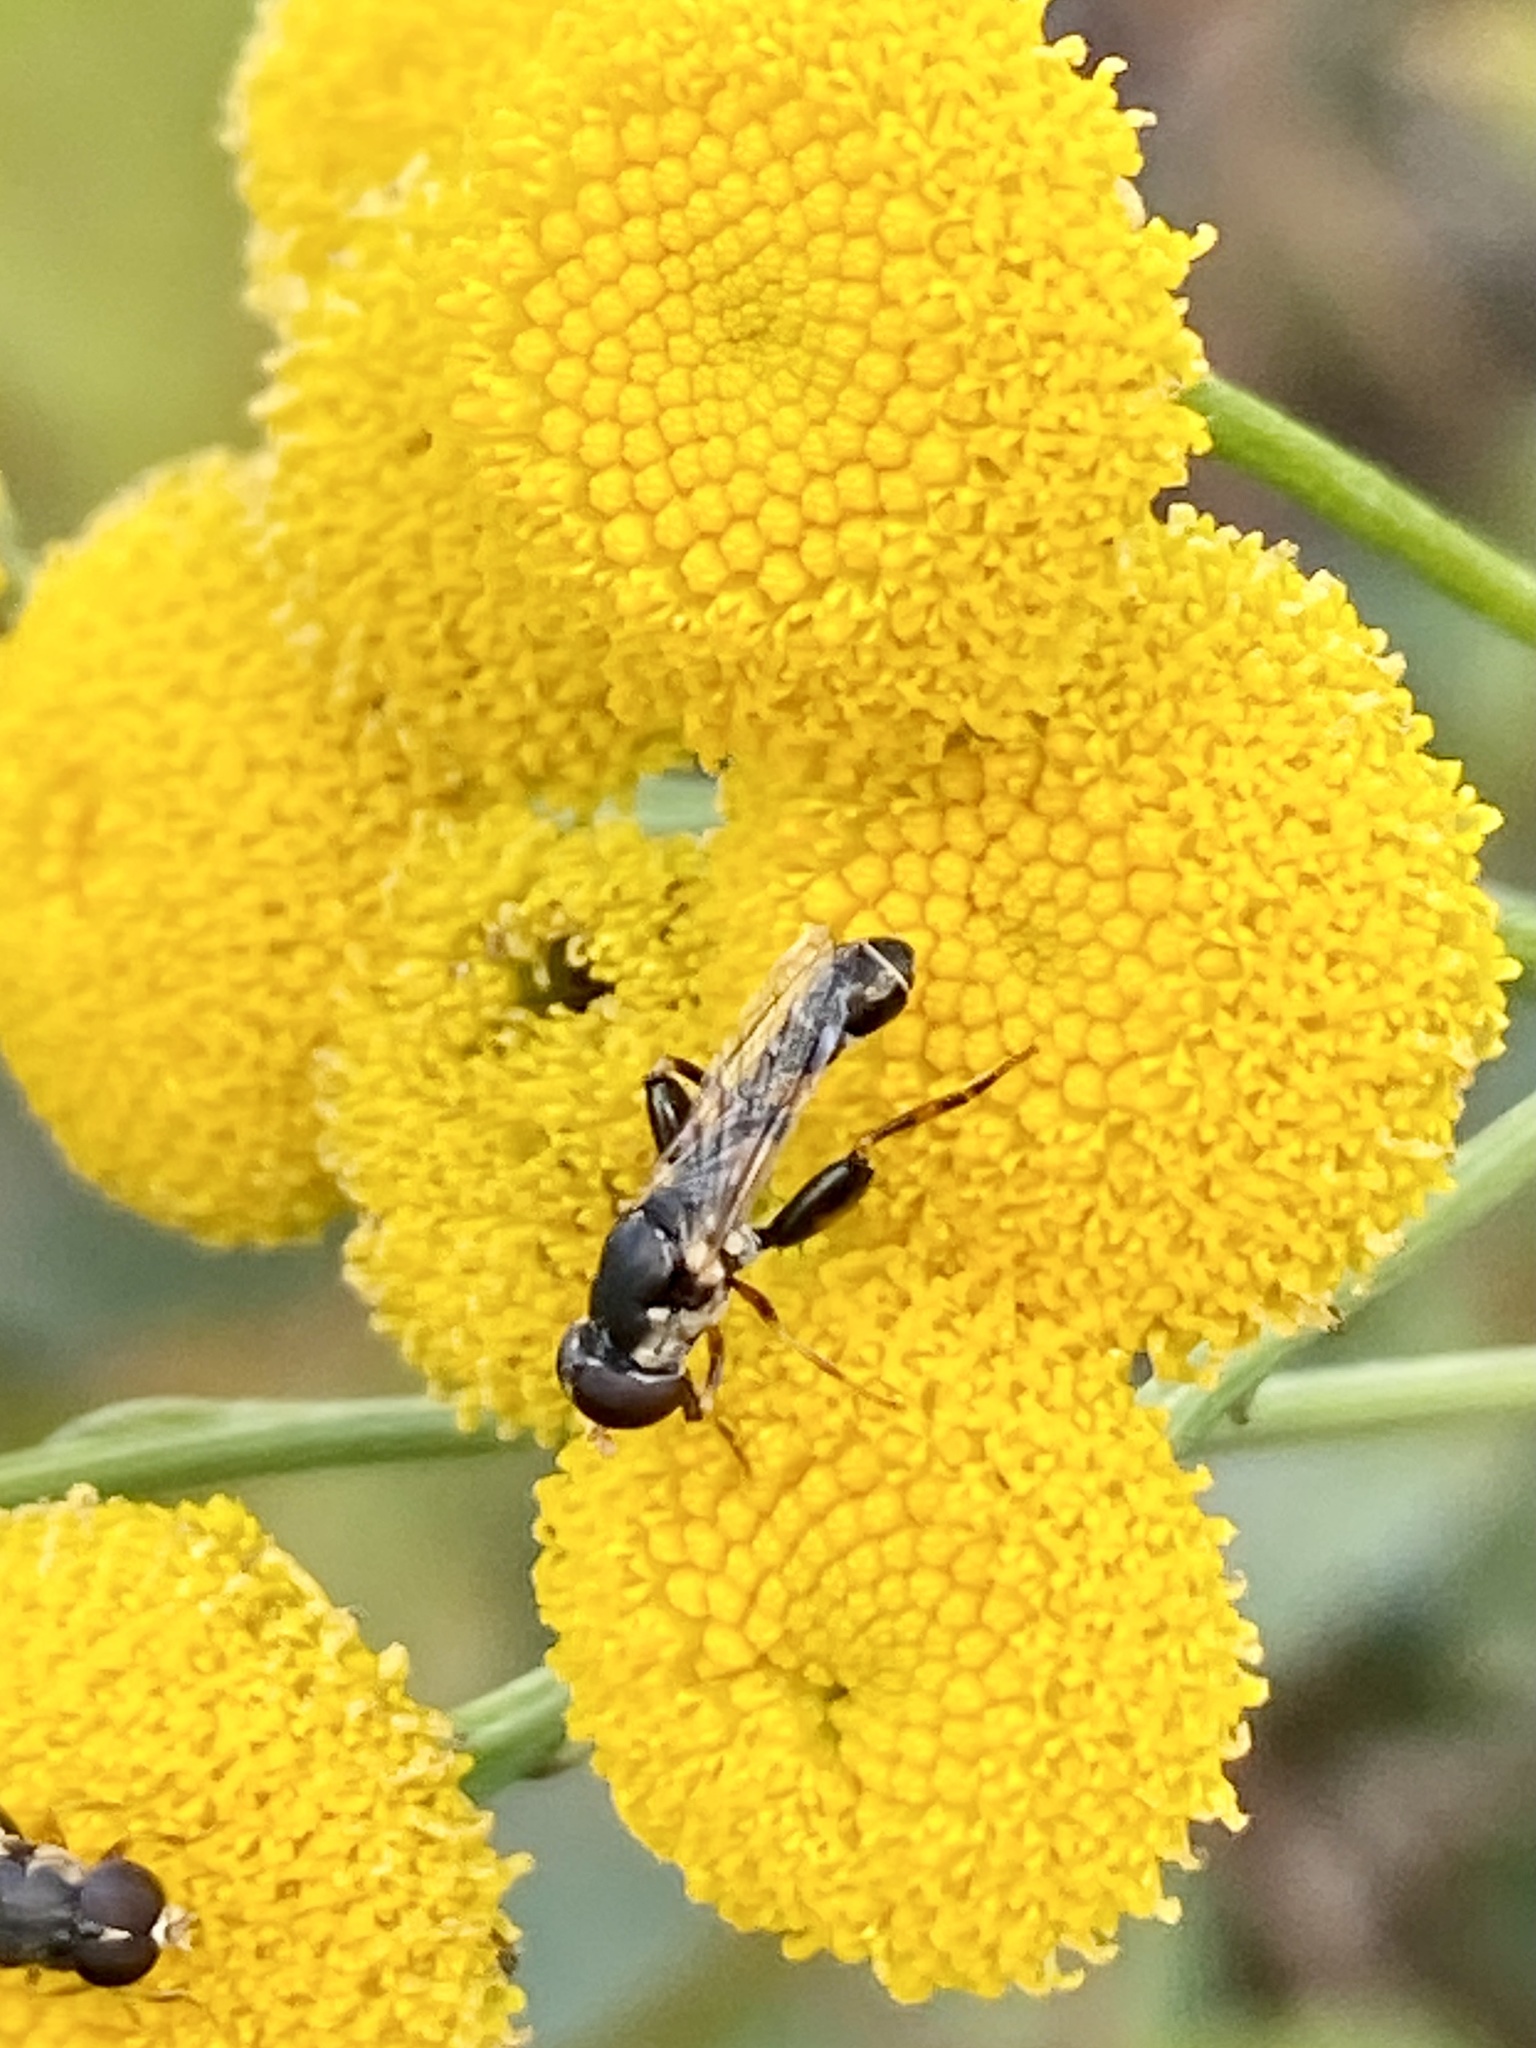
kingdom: Animalia
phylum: Arthropoda
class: Insecta
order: Diptera
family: Syrphidae
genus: Syritta
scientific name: Syritta pipiens
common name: Hover fly
